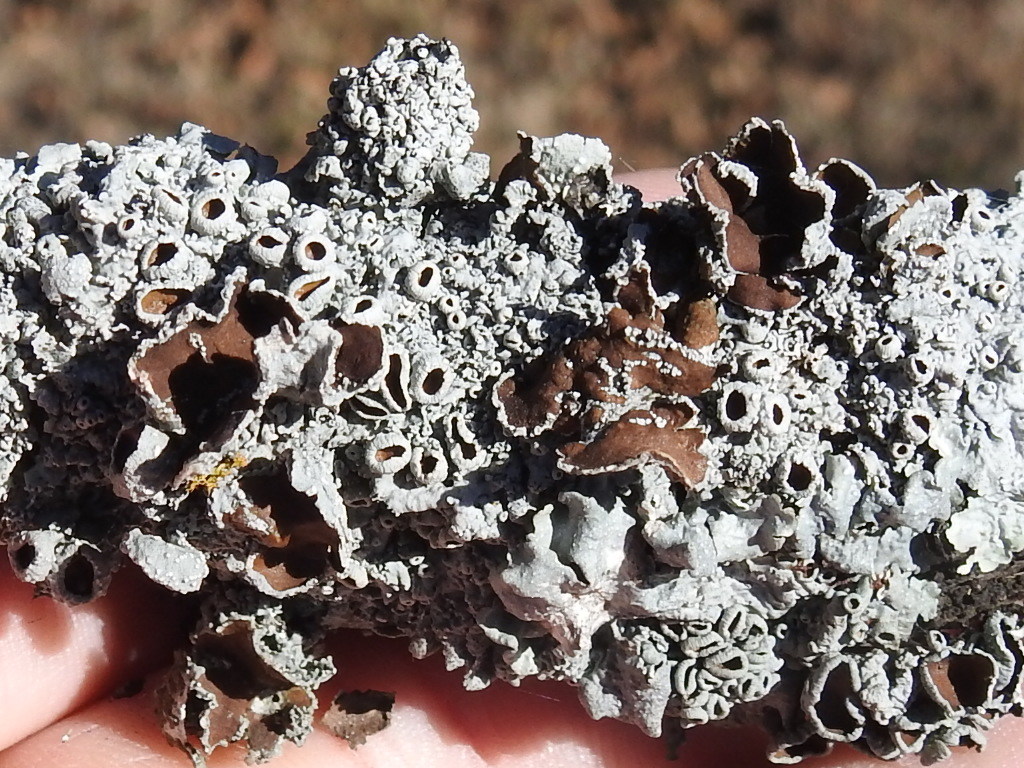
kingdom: Fungi
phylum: Ascomycota
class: Lecanoromycetes
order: Lecanorales
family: Parmeliaceae
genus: Punctelia
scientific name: Punctelia bolliana
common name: Eastern speckled shield lichen
